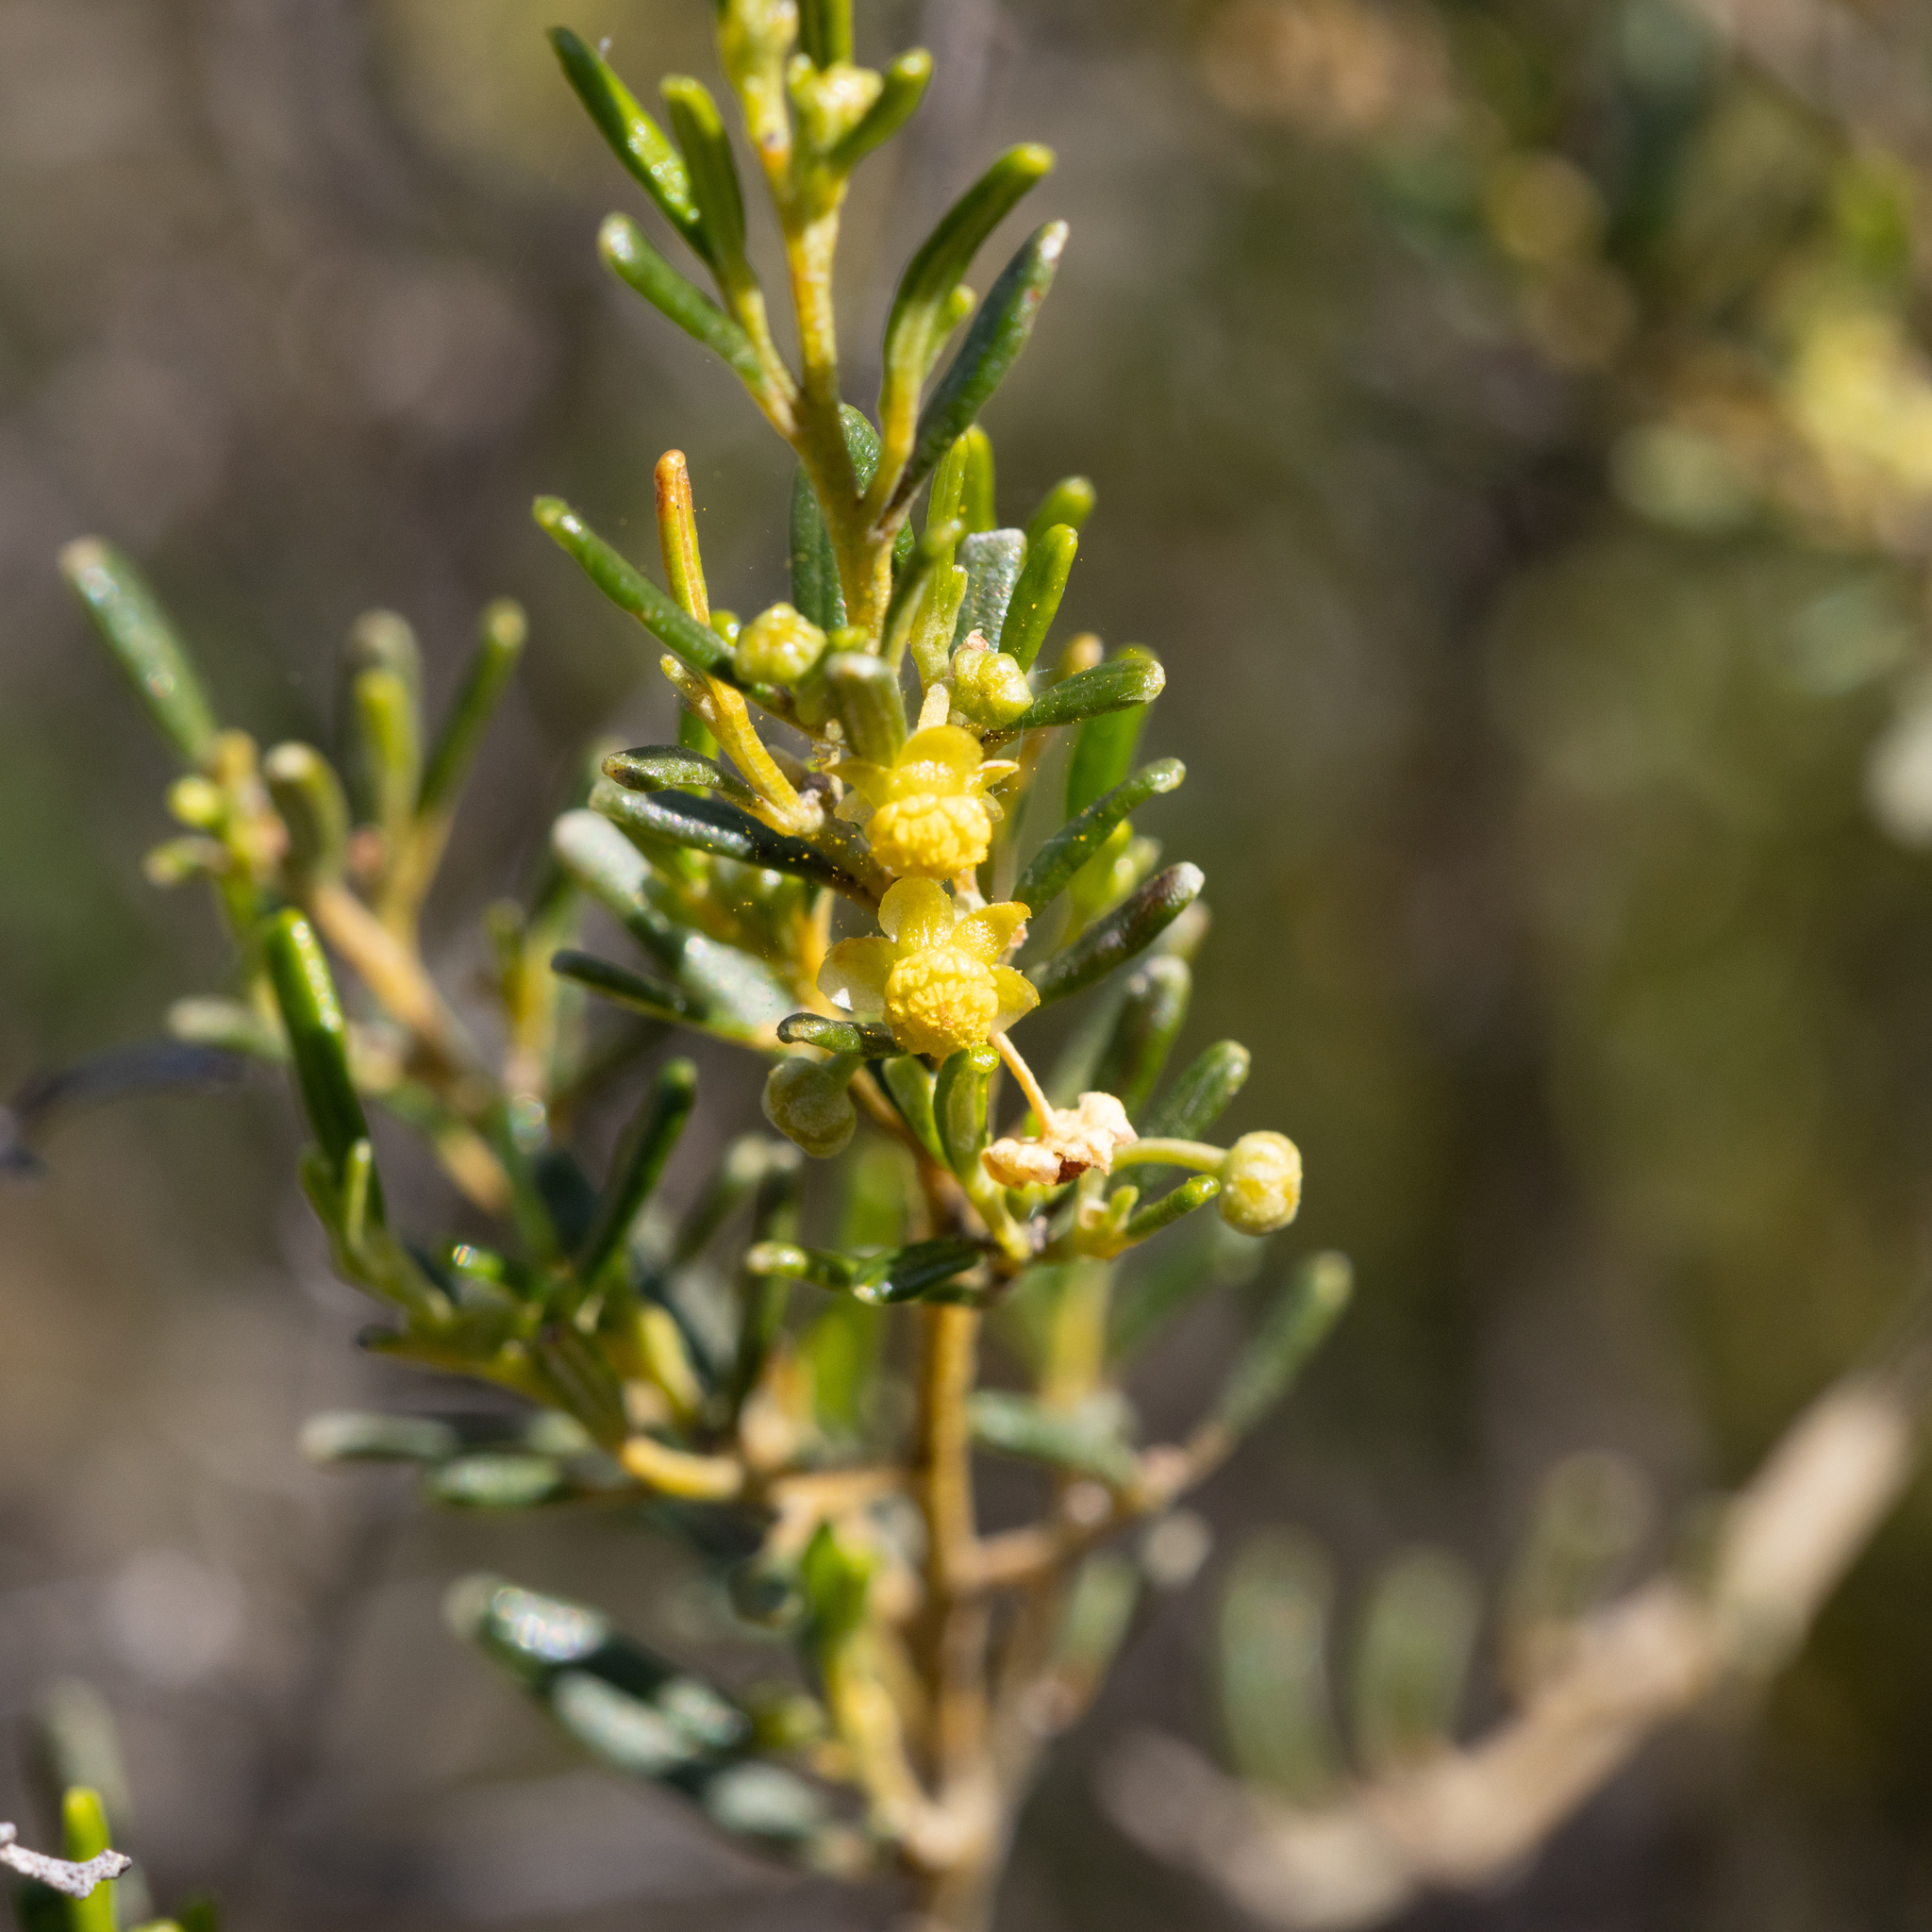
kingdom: Plantae
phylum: Tracheophyta
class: Magnoliopsida
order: Malpighiales
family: Euphorbiaceae
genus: Beyeria
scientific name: Beyeria lechenaultii
